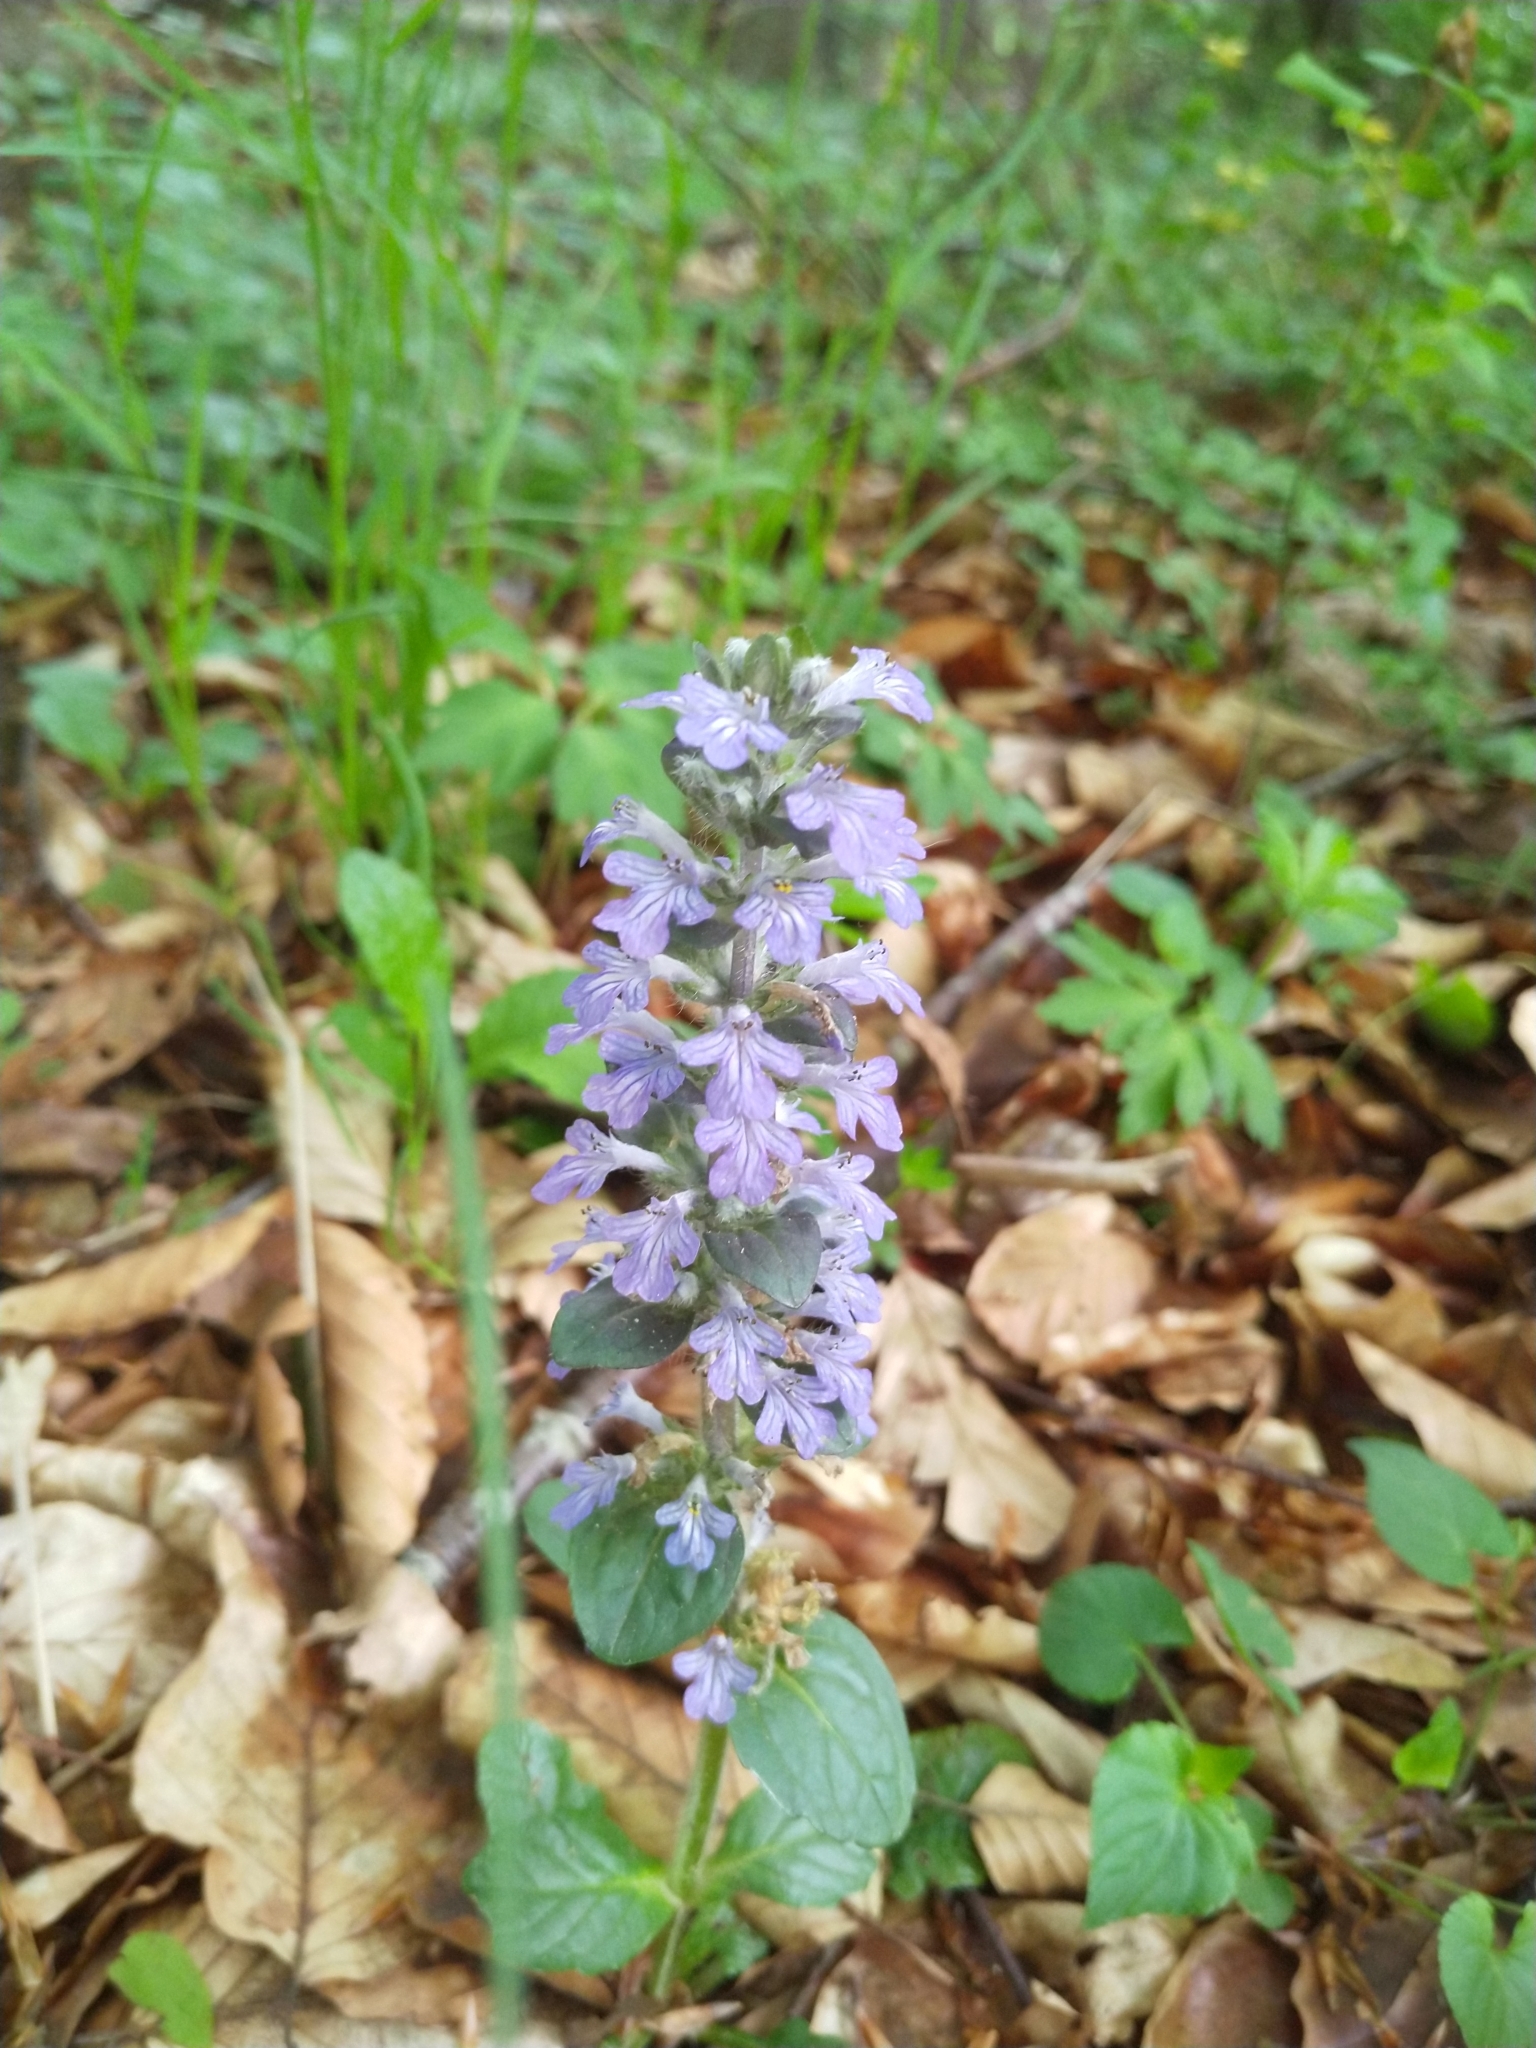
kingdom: Plantae
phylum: Tracheophyta
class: Magnoliopsida
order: Lamiales
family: Lamiaceae
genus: Ajuga
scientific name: Ajuga reptans
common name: Bugle
